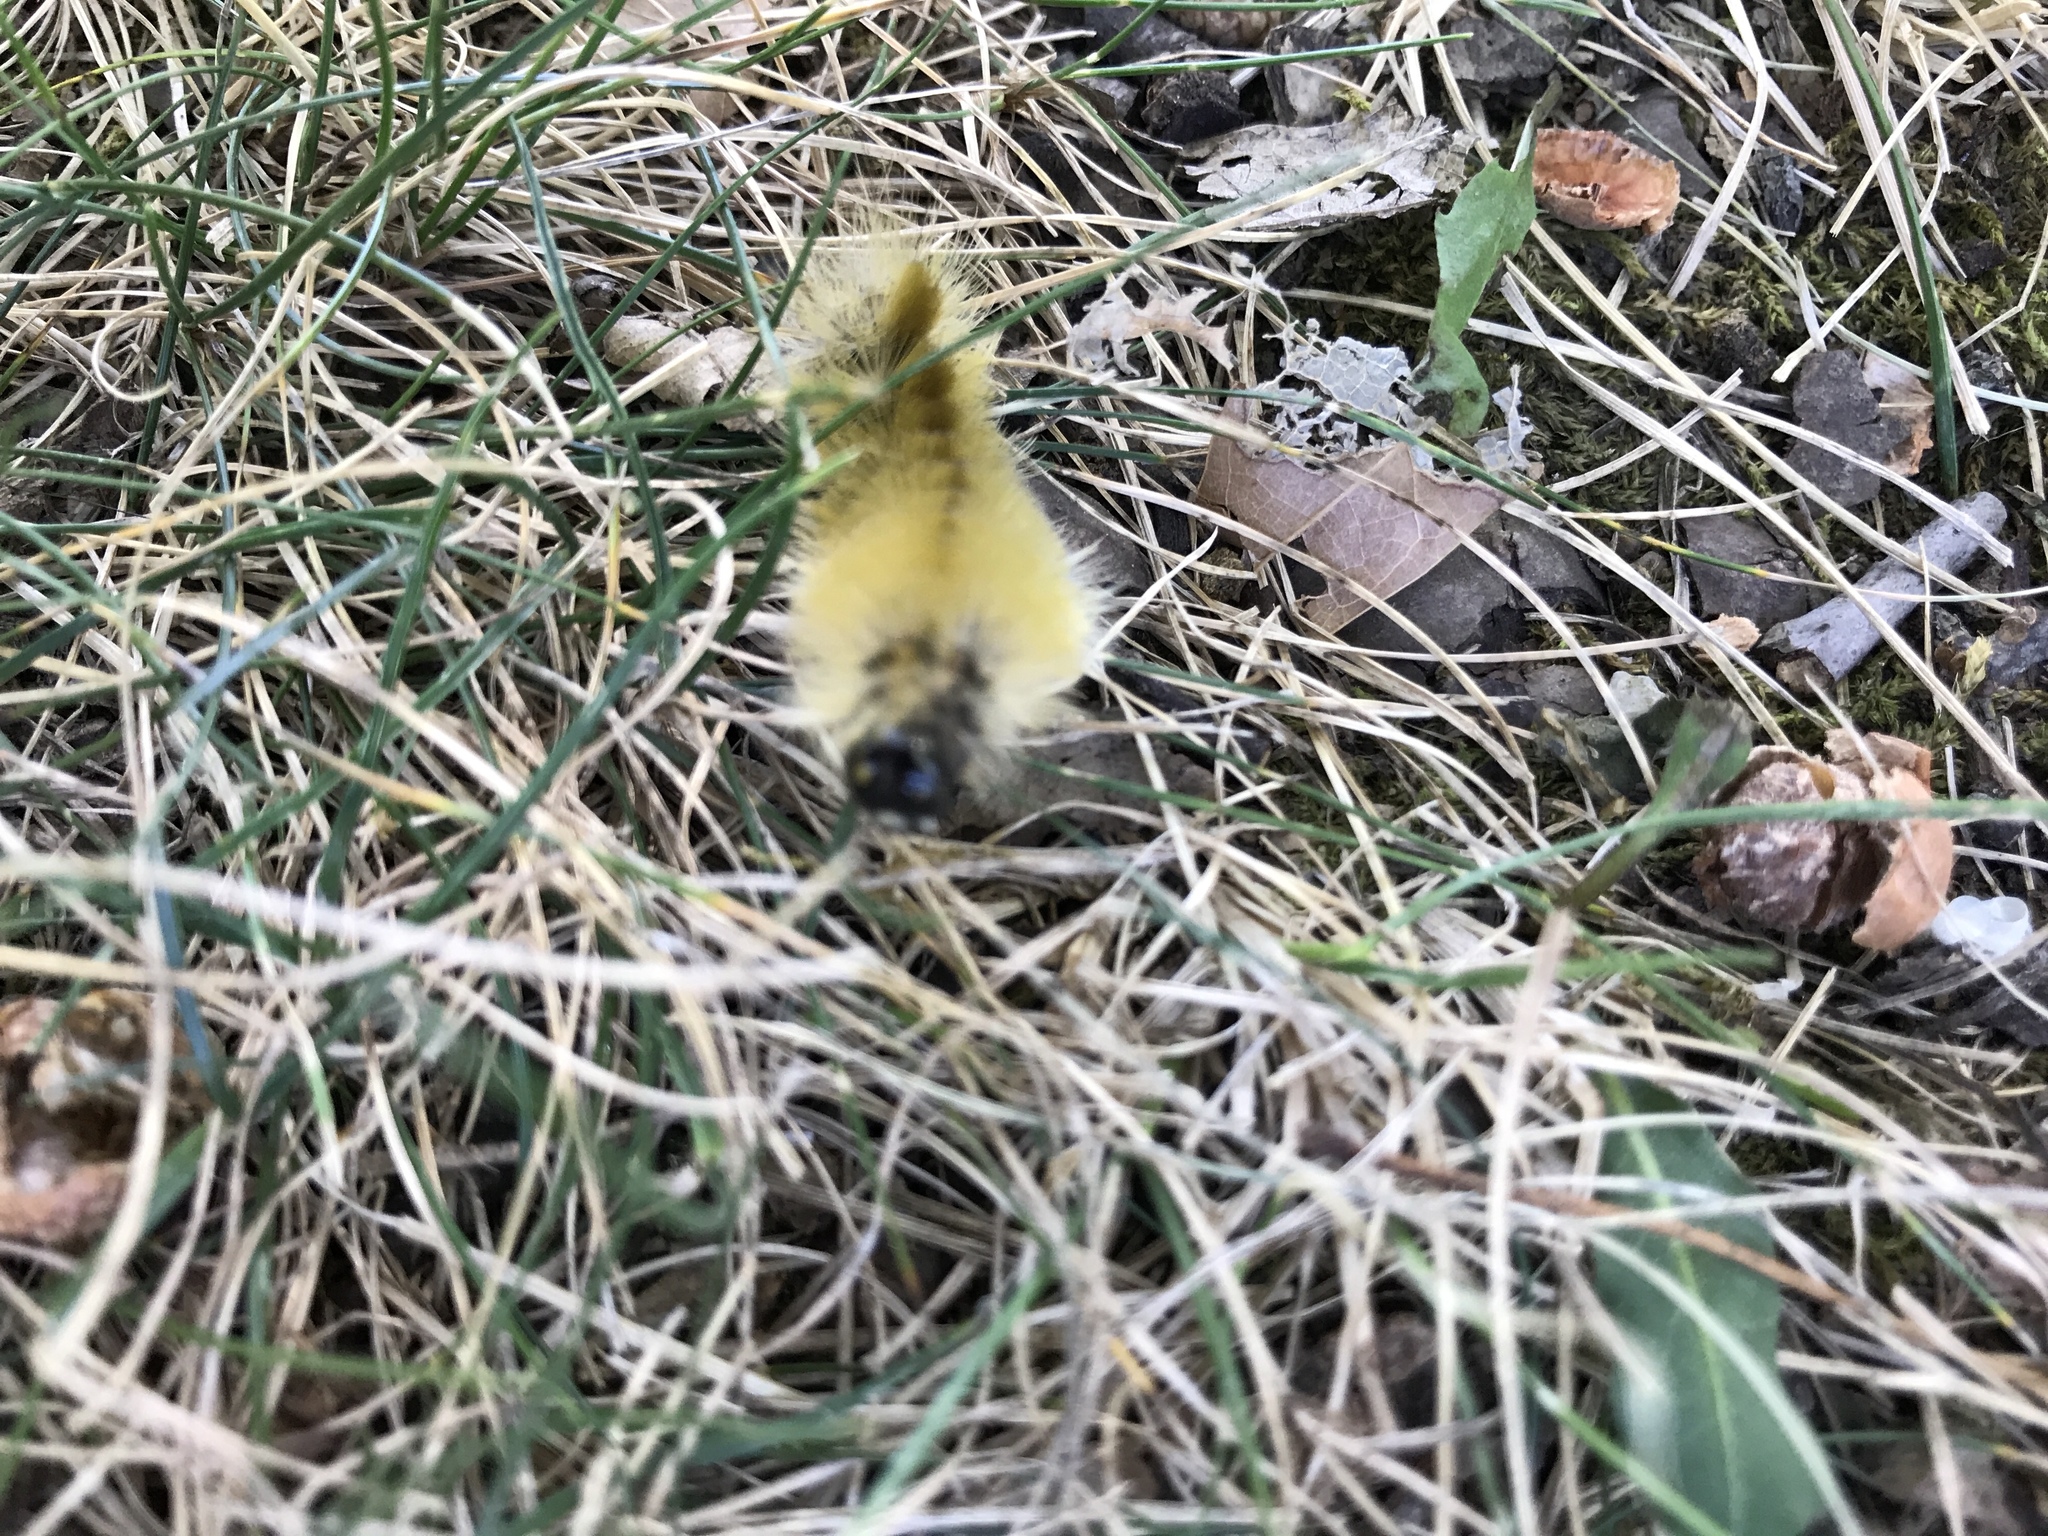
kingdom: Animalia
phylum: Arthropoda
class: Insecta
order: Lepidoptera
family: Erebidae
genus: Halysidota
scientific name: Halysidota tessellaris
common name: Banded tussock moth
